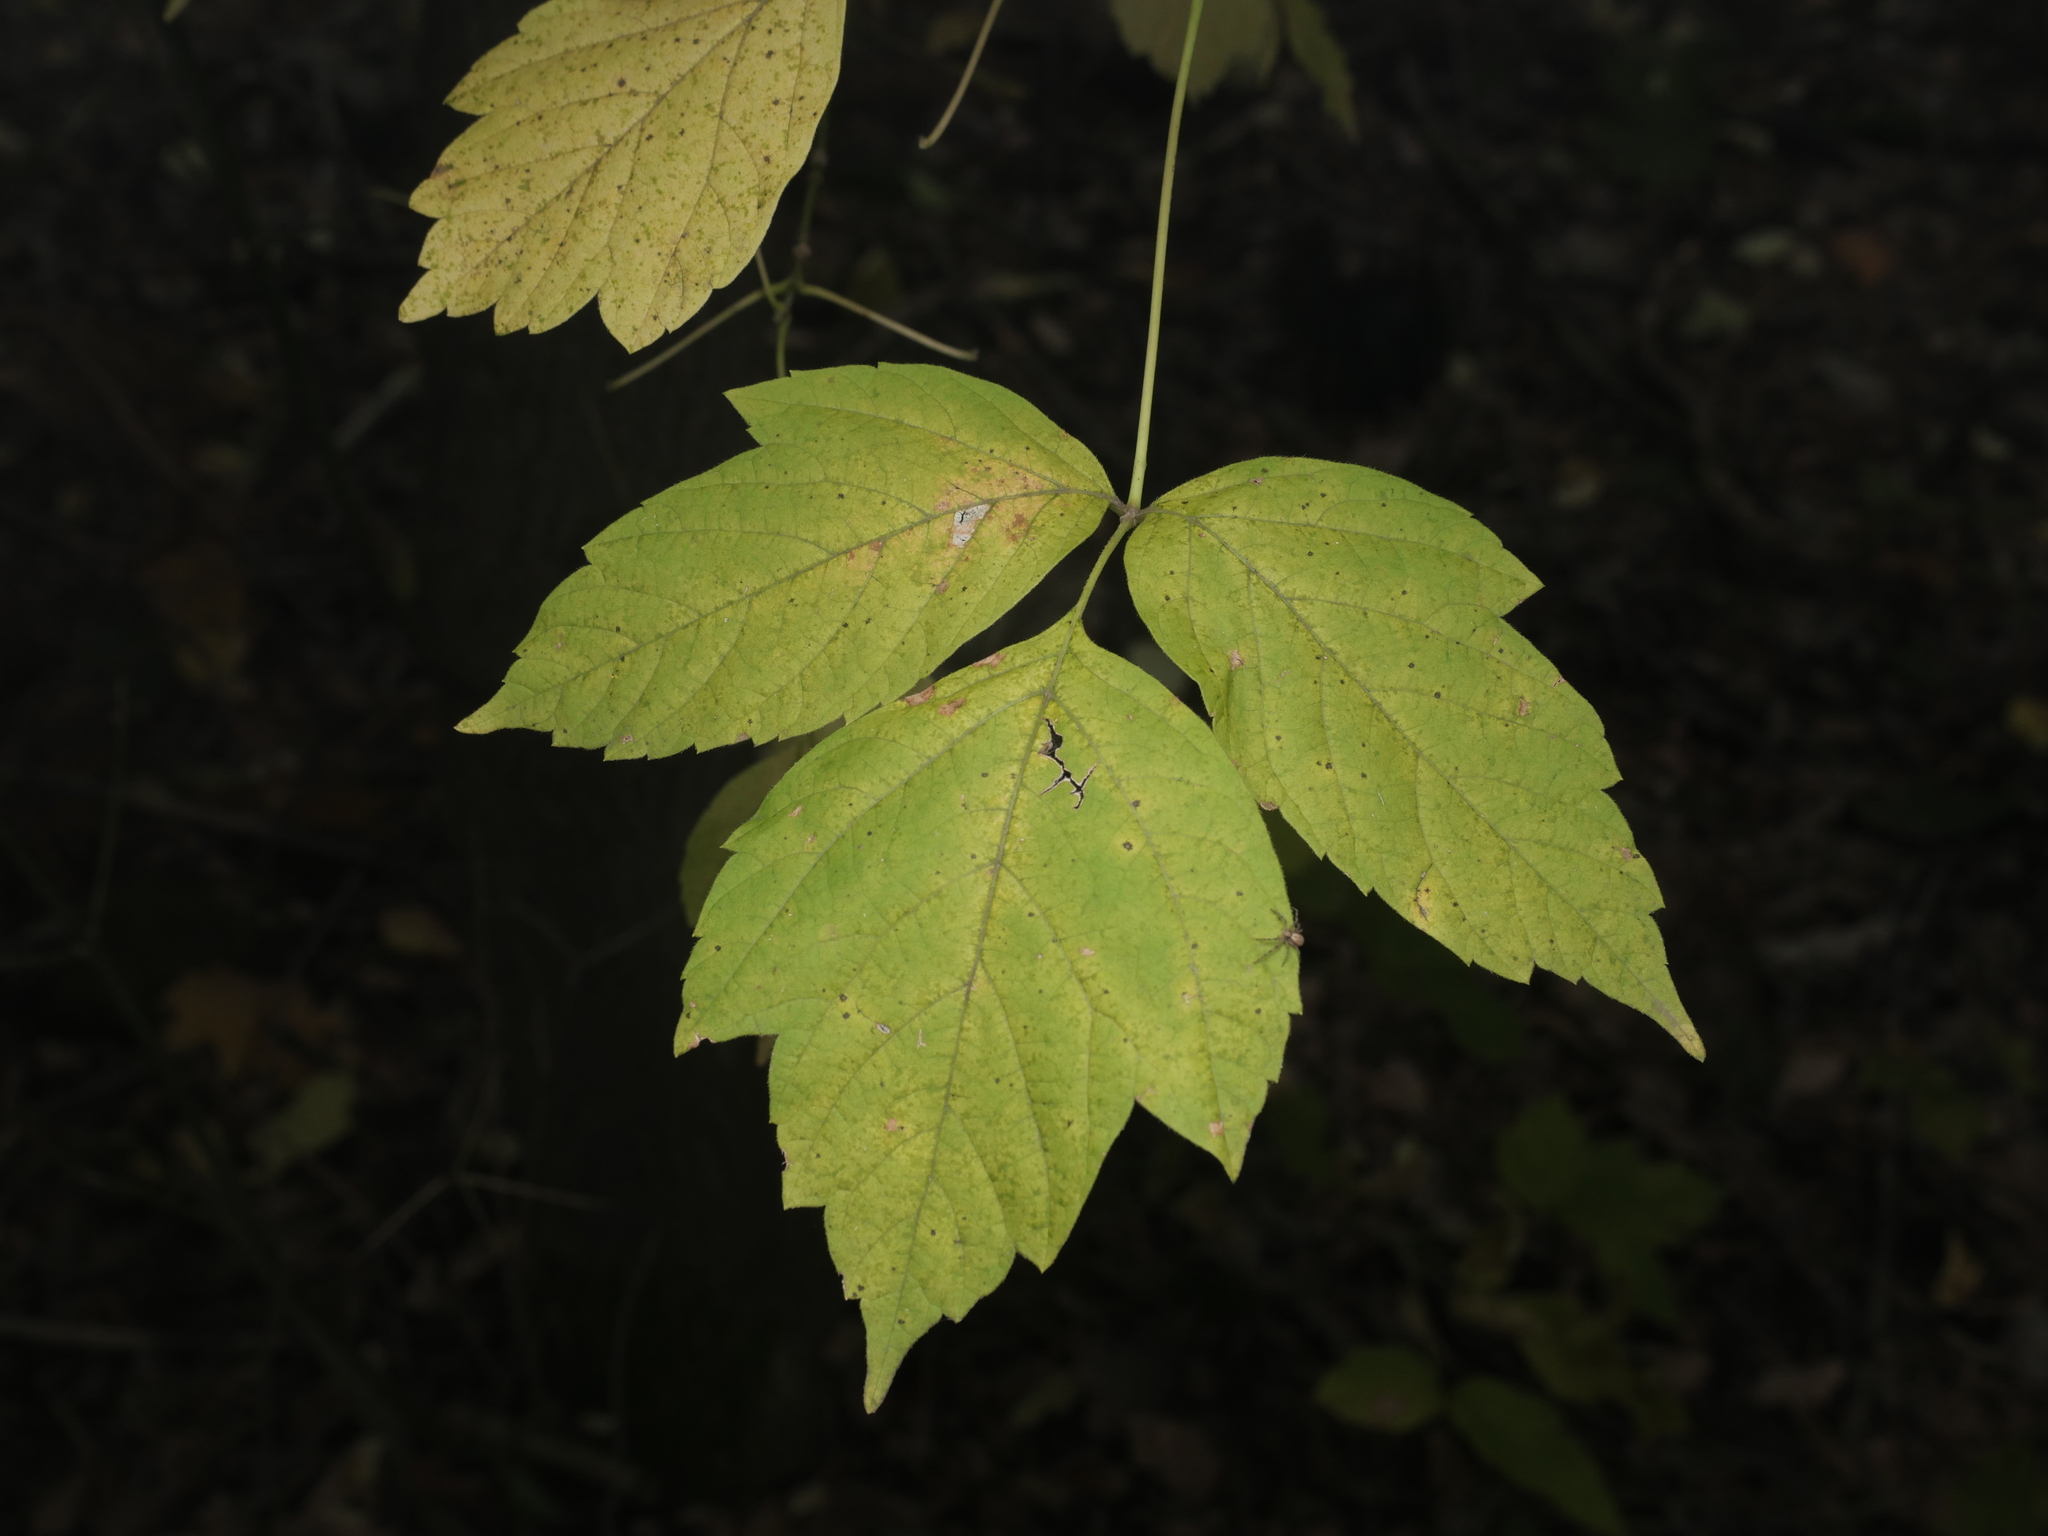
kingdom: Plantae
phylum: Tracheophyta
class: Magnoliopsida
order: Sapindales
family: Sapindaceae
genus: Acer
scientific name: Acer negundo
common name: Ashleaf maple
